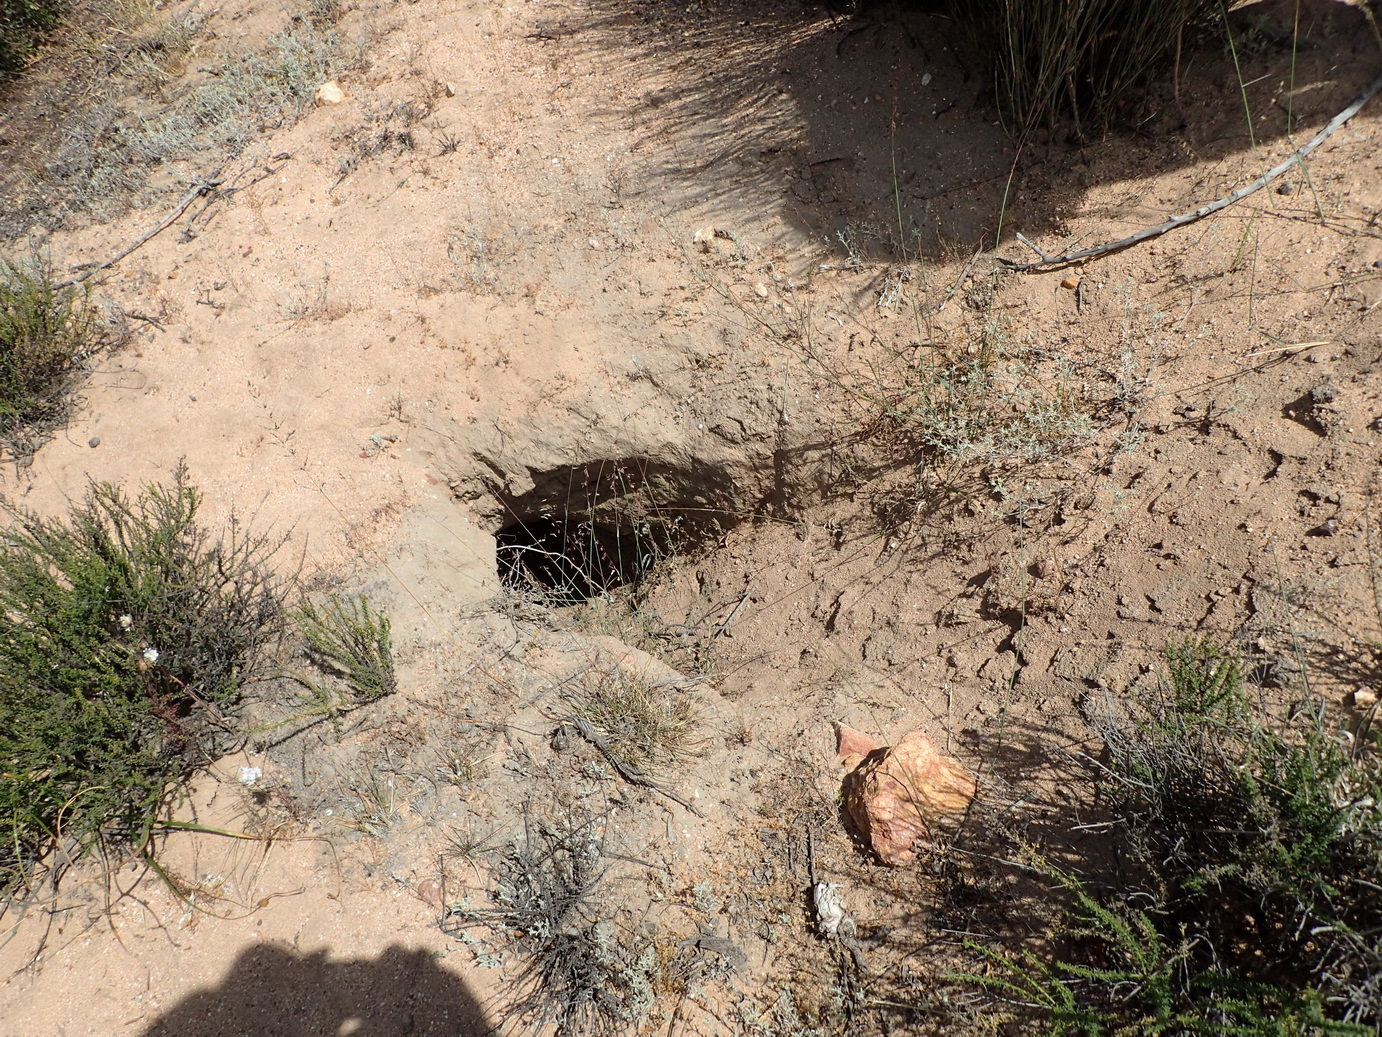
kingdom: Animalia
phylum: Chordata
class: Mammalia
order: Tubulidentata
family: Orycteropodidae
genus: Orycteropus
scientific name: Orycteropus afer
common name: Aardvark
